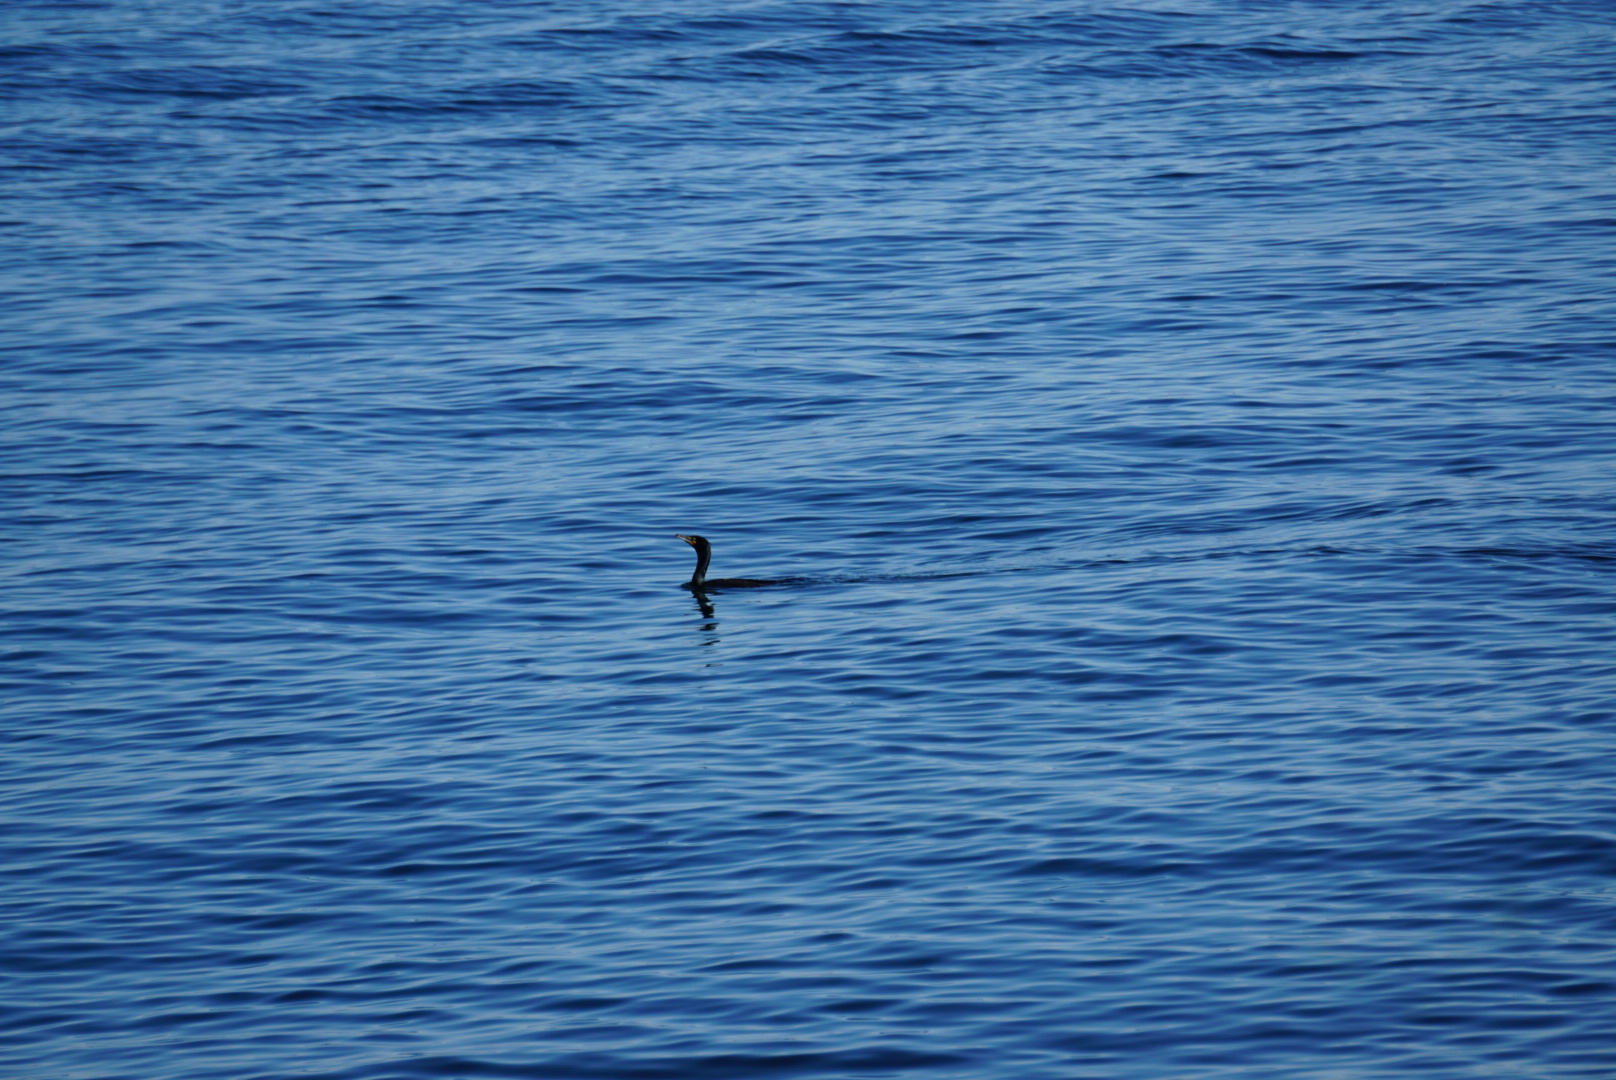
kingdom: Animalia
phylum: Chordata
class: Aves
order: Suliformes
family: Phalacrocoracidae
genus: Phalacrocorax
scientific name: Phalacrocorax auritus
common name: Double-crested cormorant
